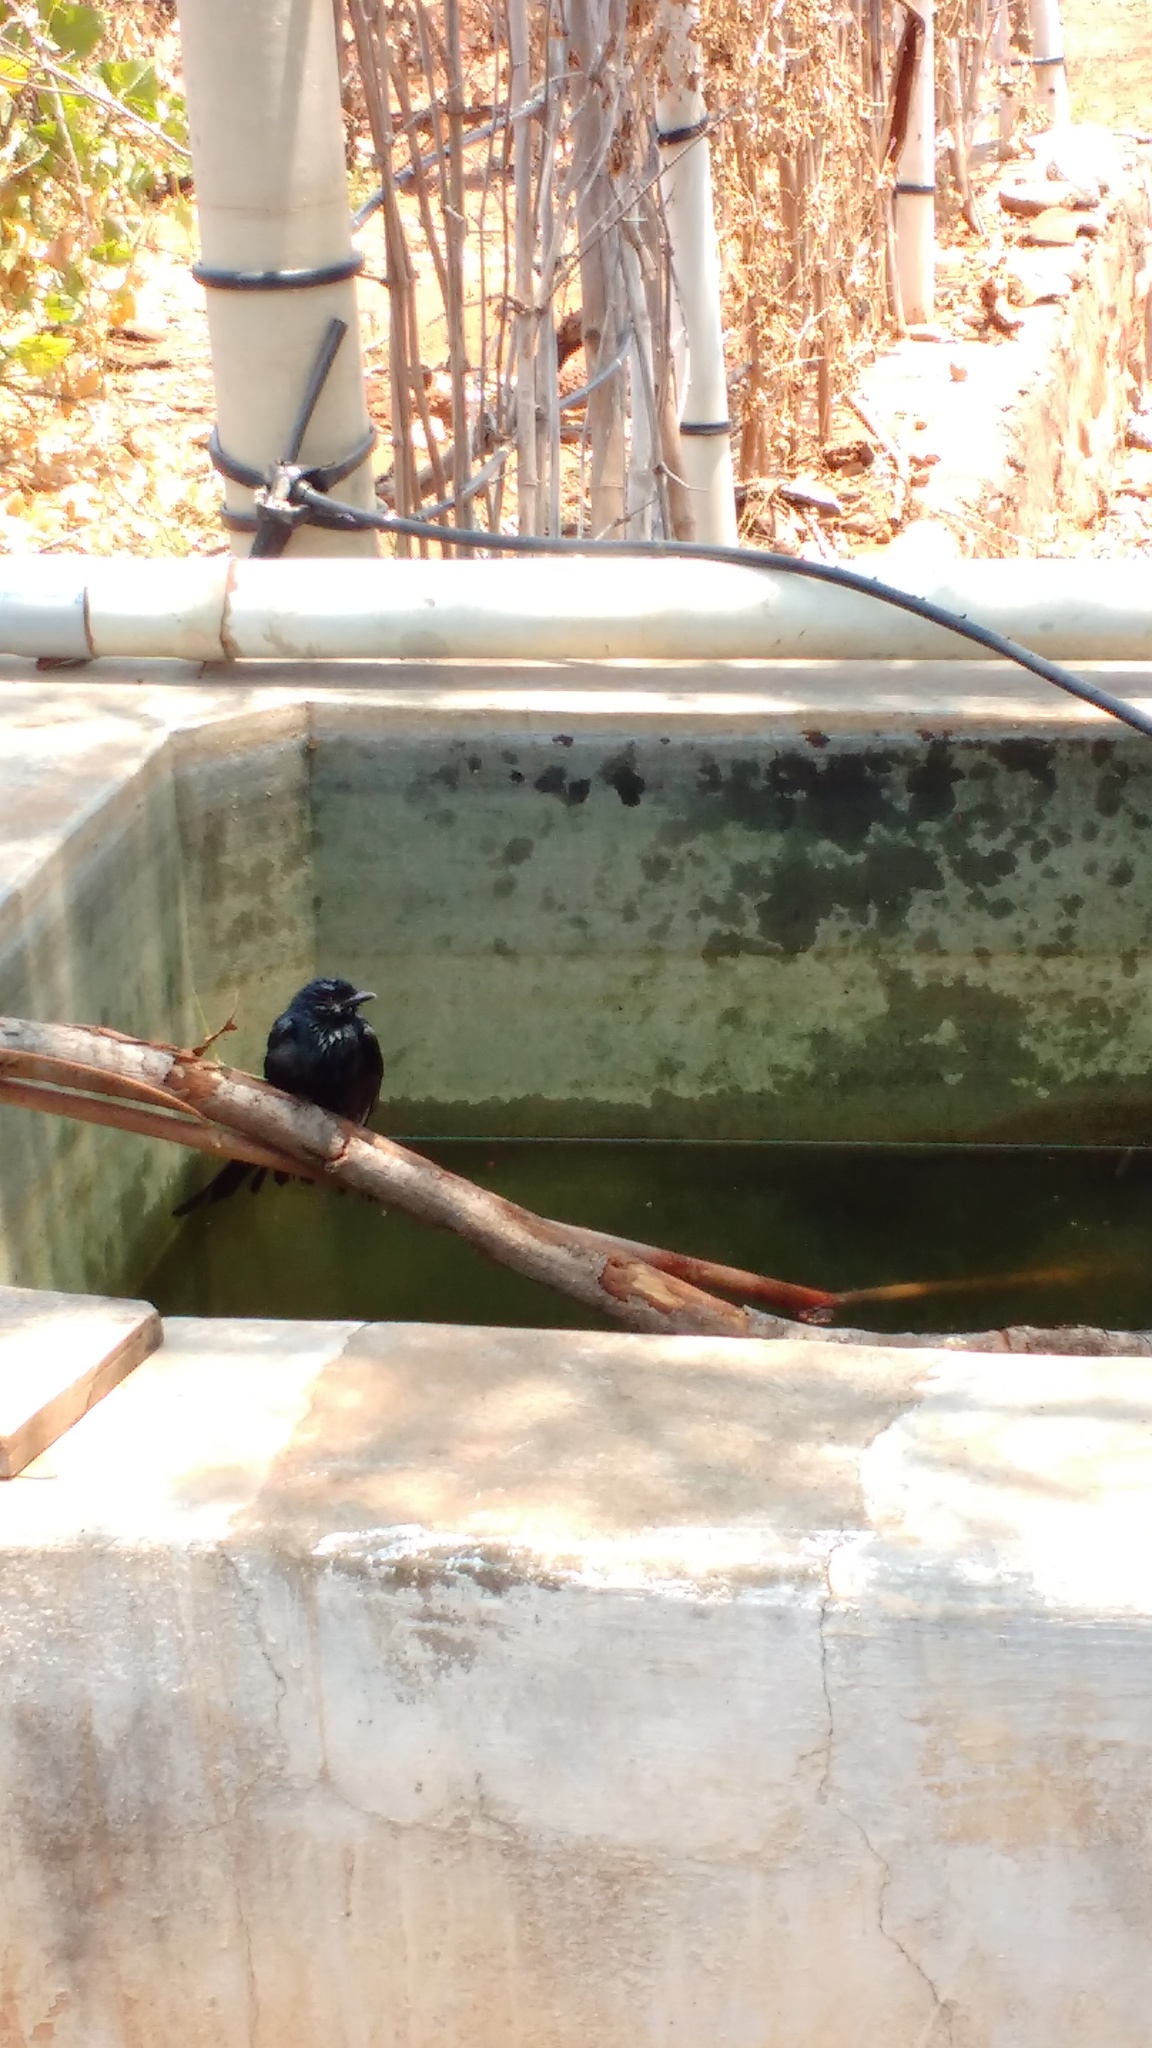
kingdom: Animalia
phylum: Chordata
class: Aves
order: Passeriformes
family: Dicruridae
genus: Dicrurus
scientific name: Dicrurus macrocercus
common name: Black drongo
